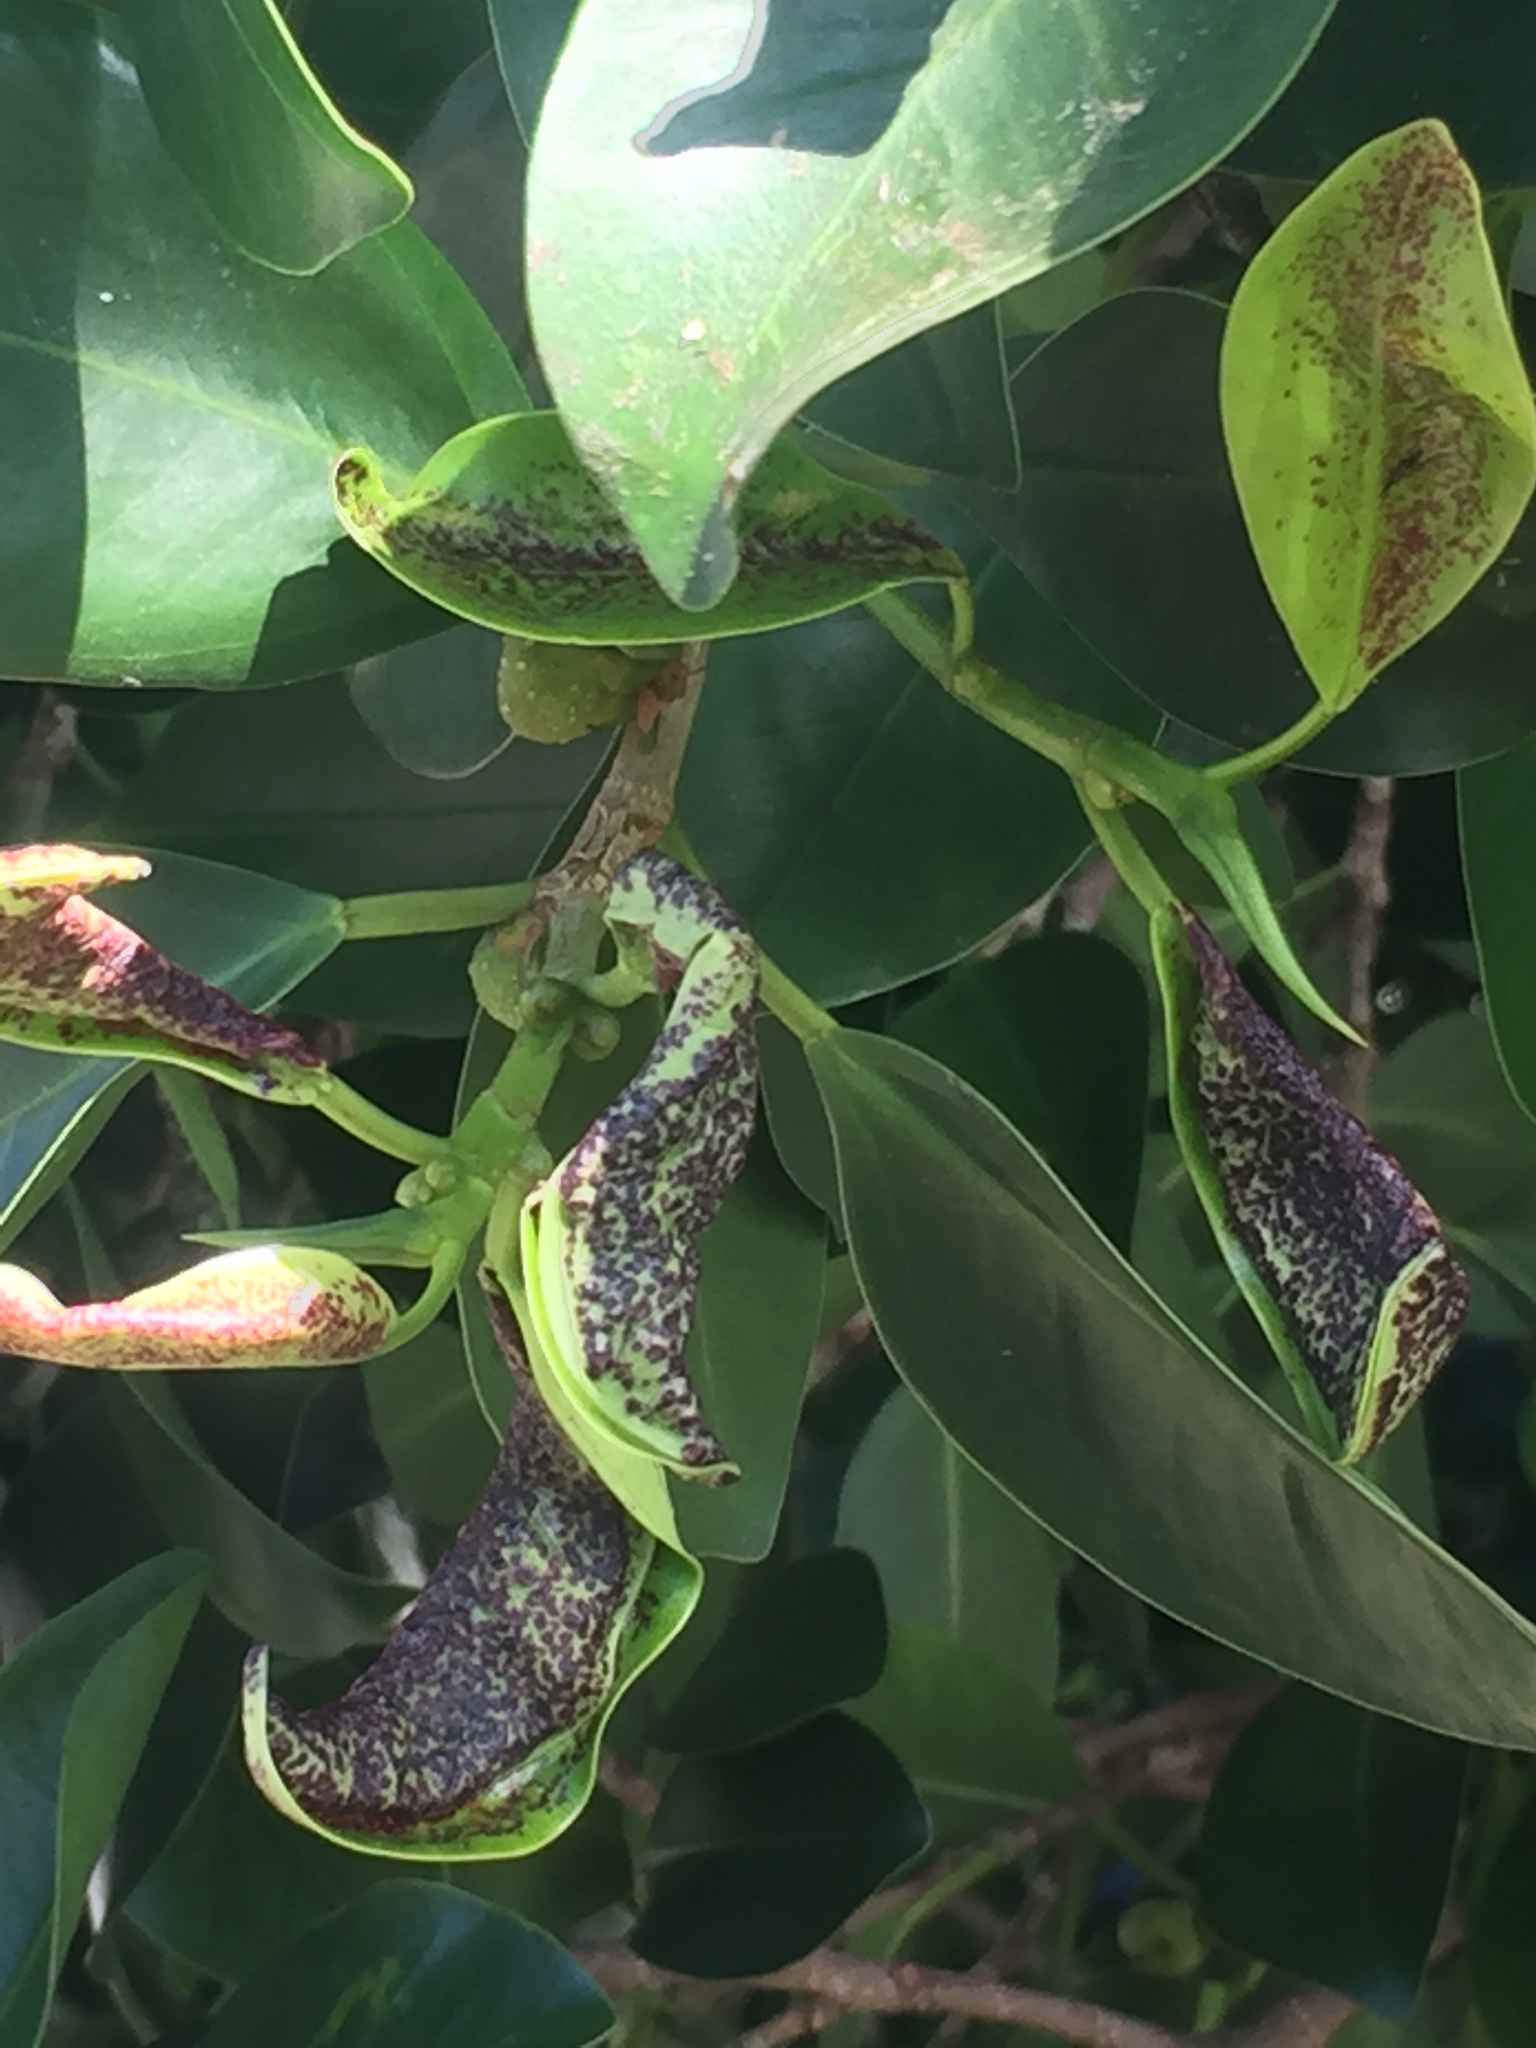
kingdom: Animalia
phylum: Arthropoda
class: Insecta
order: Thysanoptera
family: Phlaeothripidae
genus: Gynaikothrips
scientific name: Gynaikothrips ficorum
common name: Cuban laurel thrips
